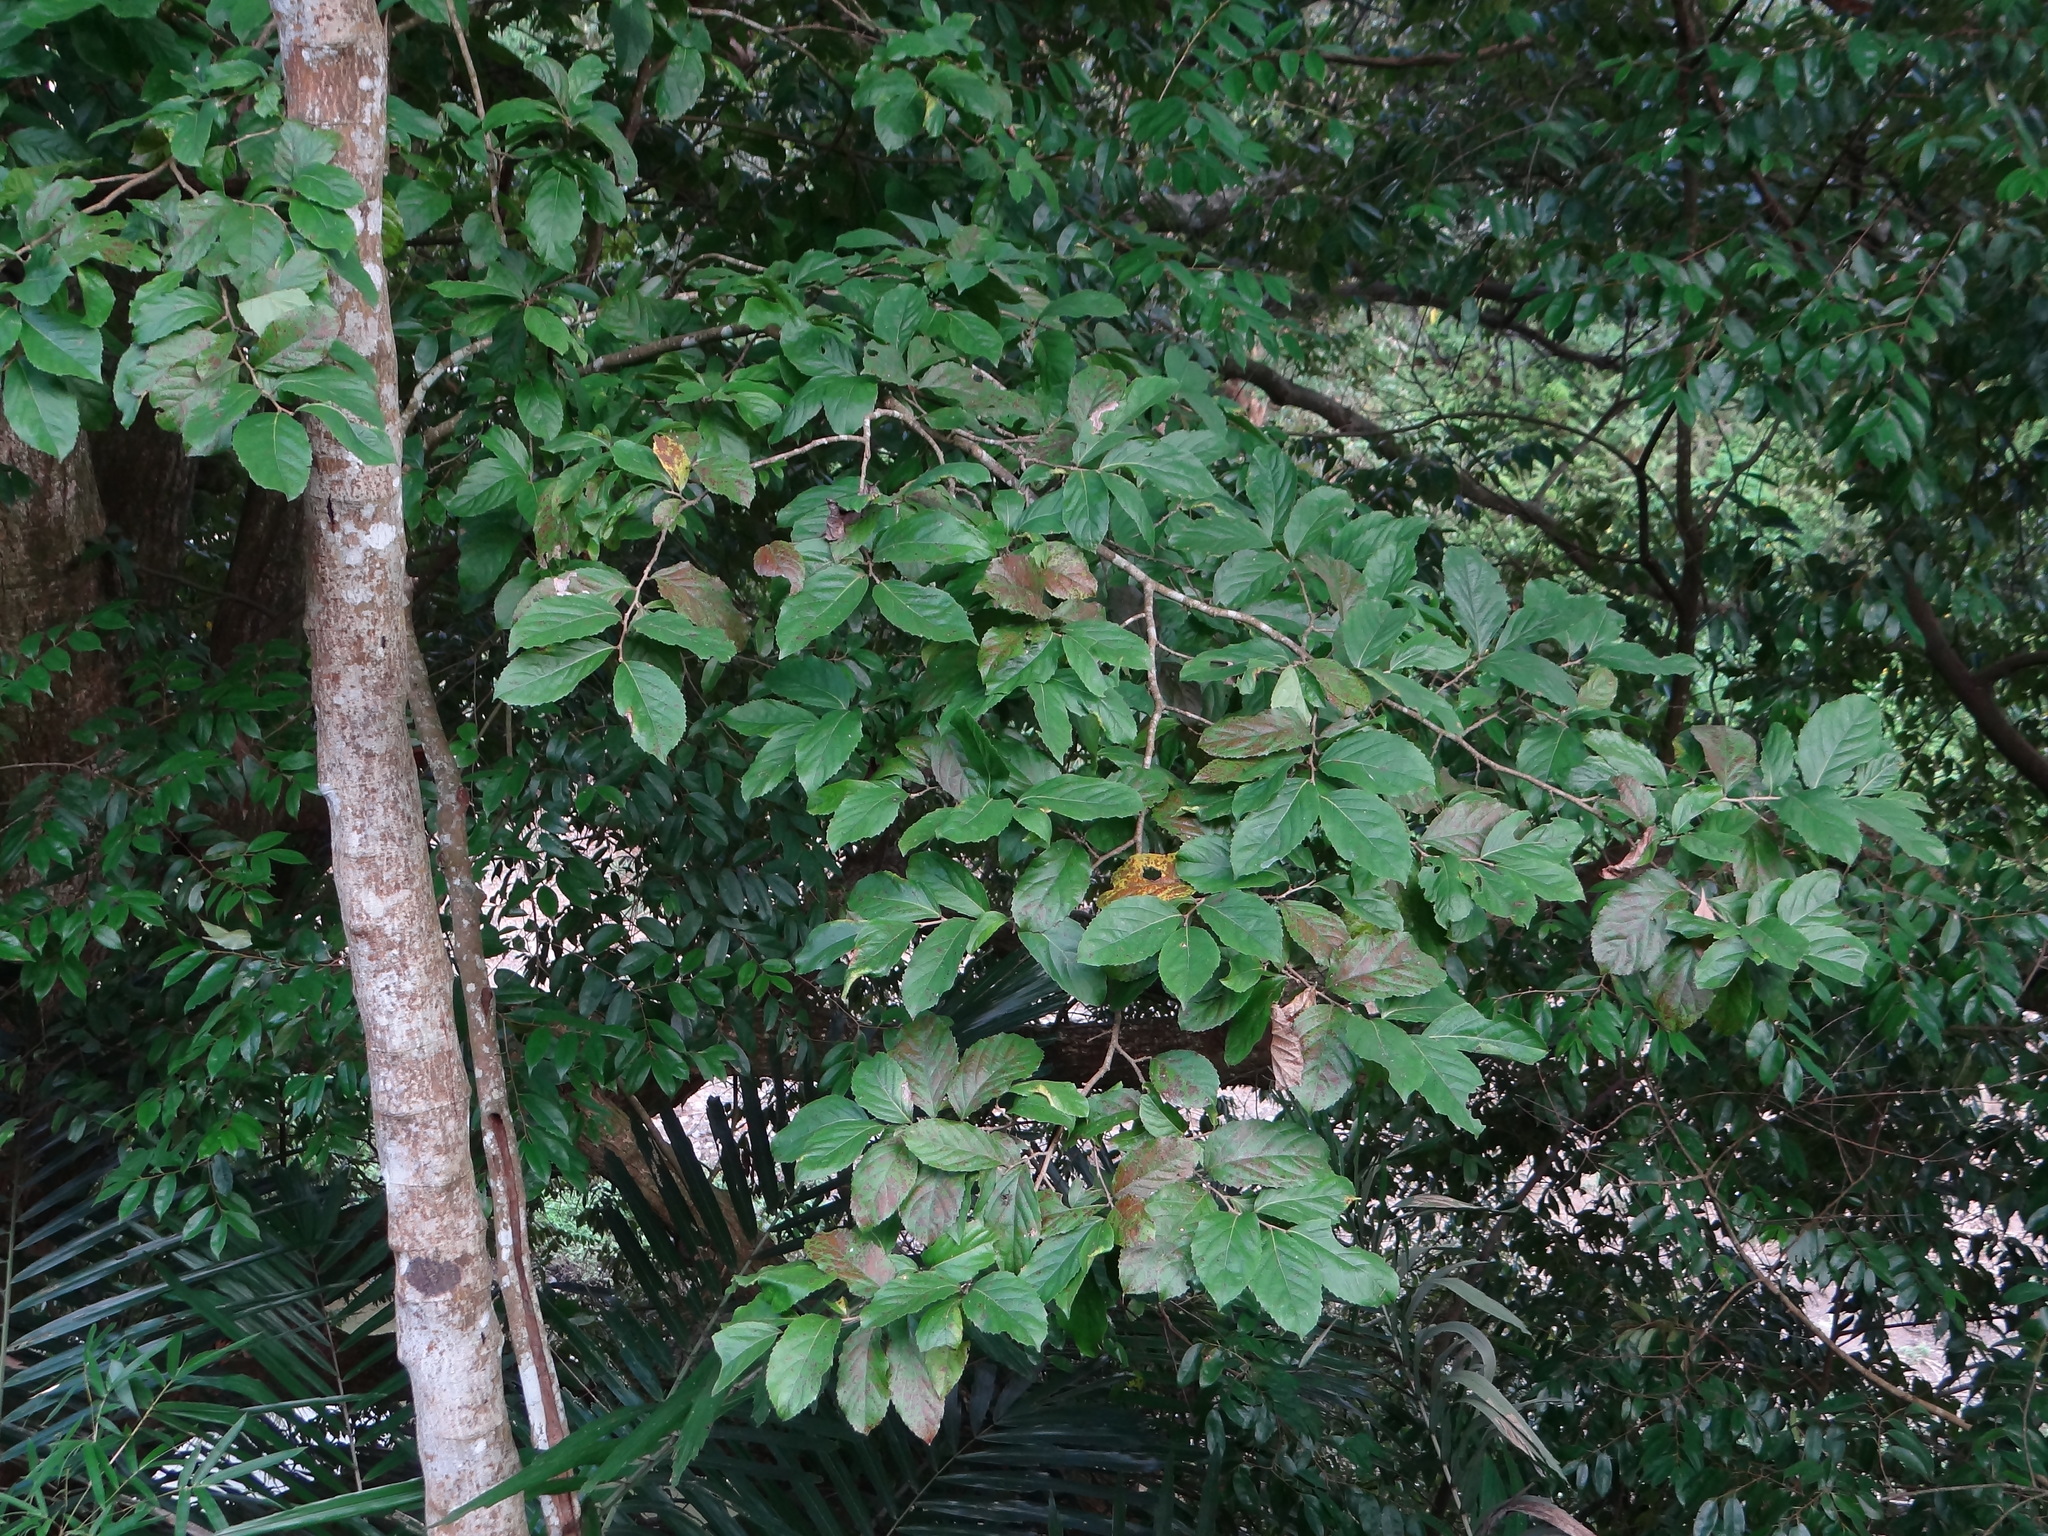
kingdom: Plantae
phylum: Tracheophyta
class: Magnoliopsida
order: Malpighiales
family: Salicaceae
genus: Homalium
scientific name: Homalium cochinchinensis
